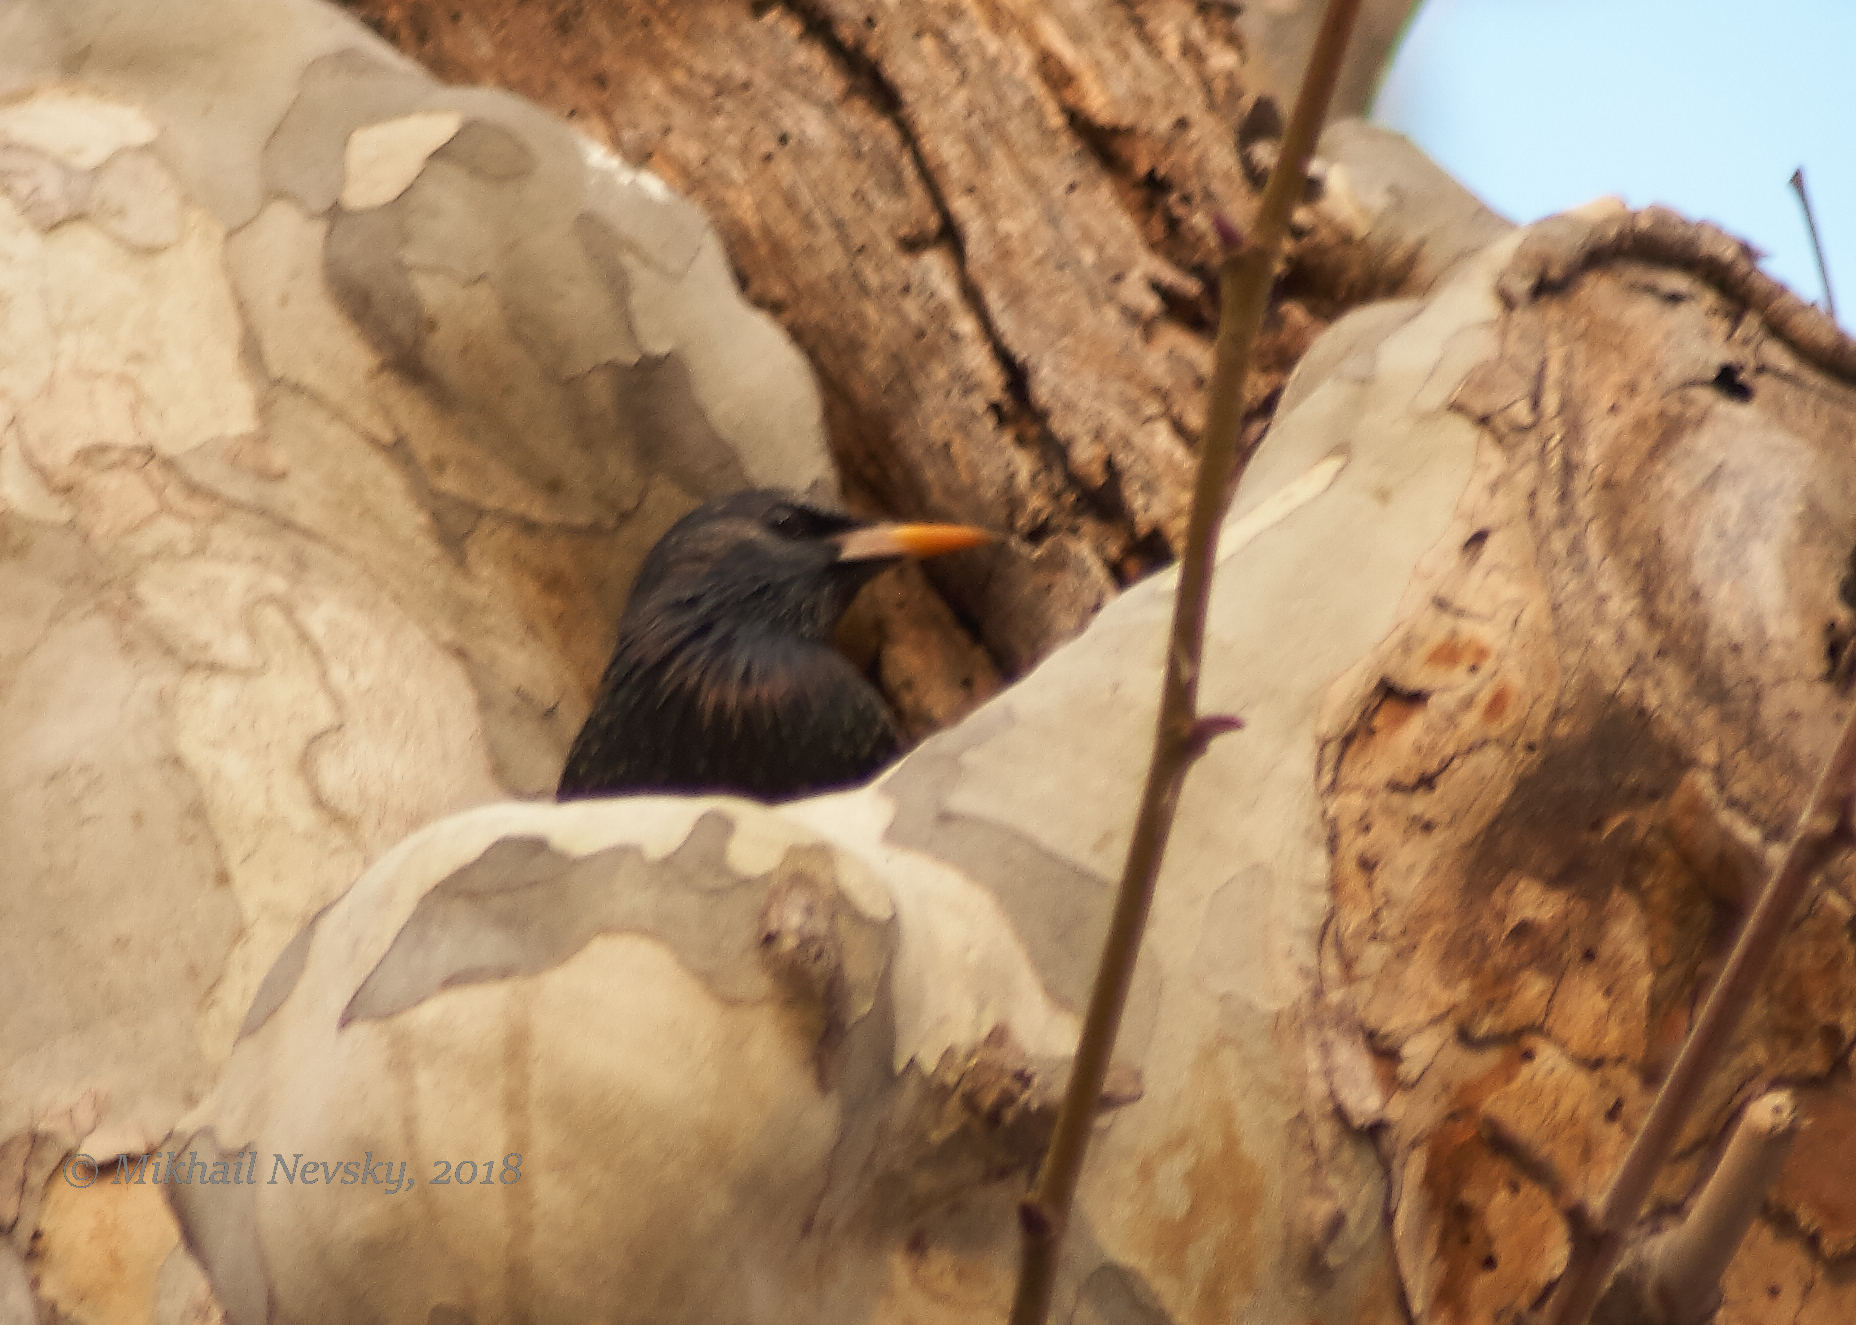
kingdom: Animalia
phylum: Chordata
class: Aves
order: Passeriformes
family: Sturnidae
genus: Sturnus
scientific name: Sturnus unicolor
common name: Spotless starling
